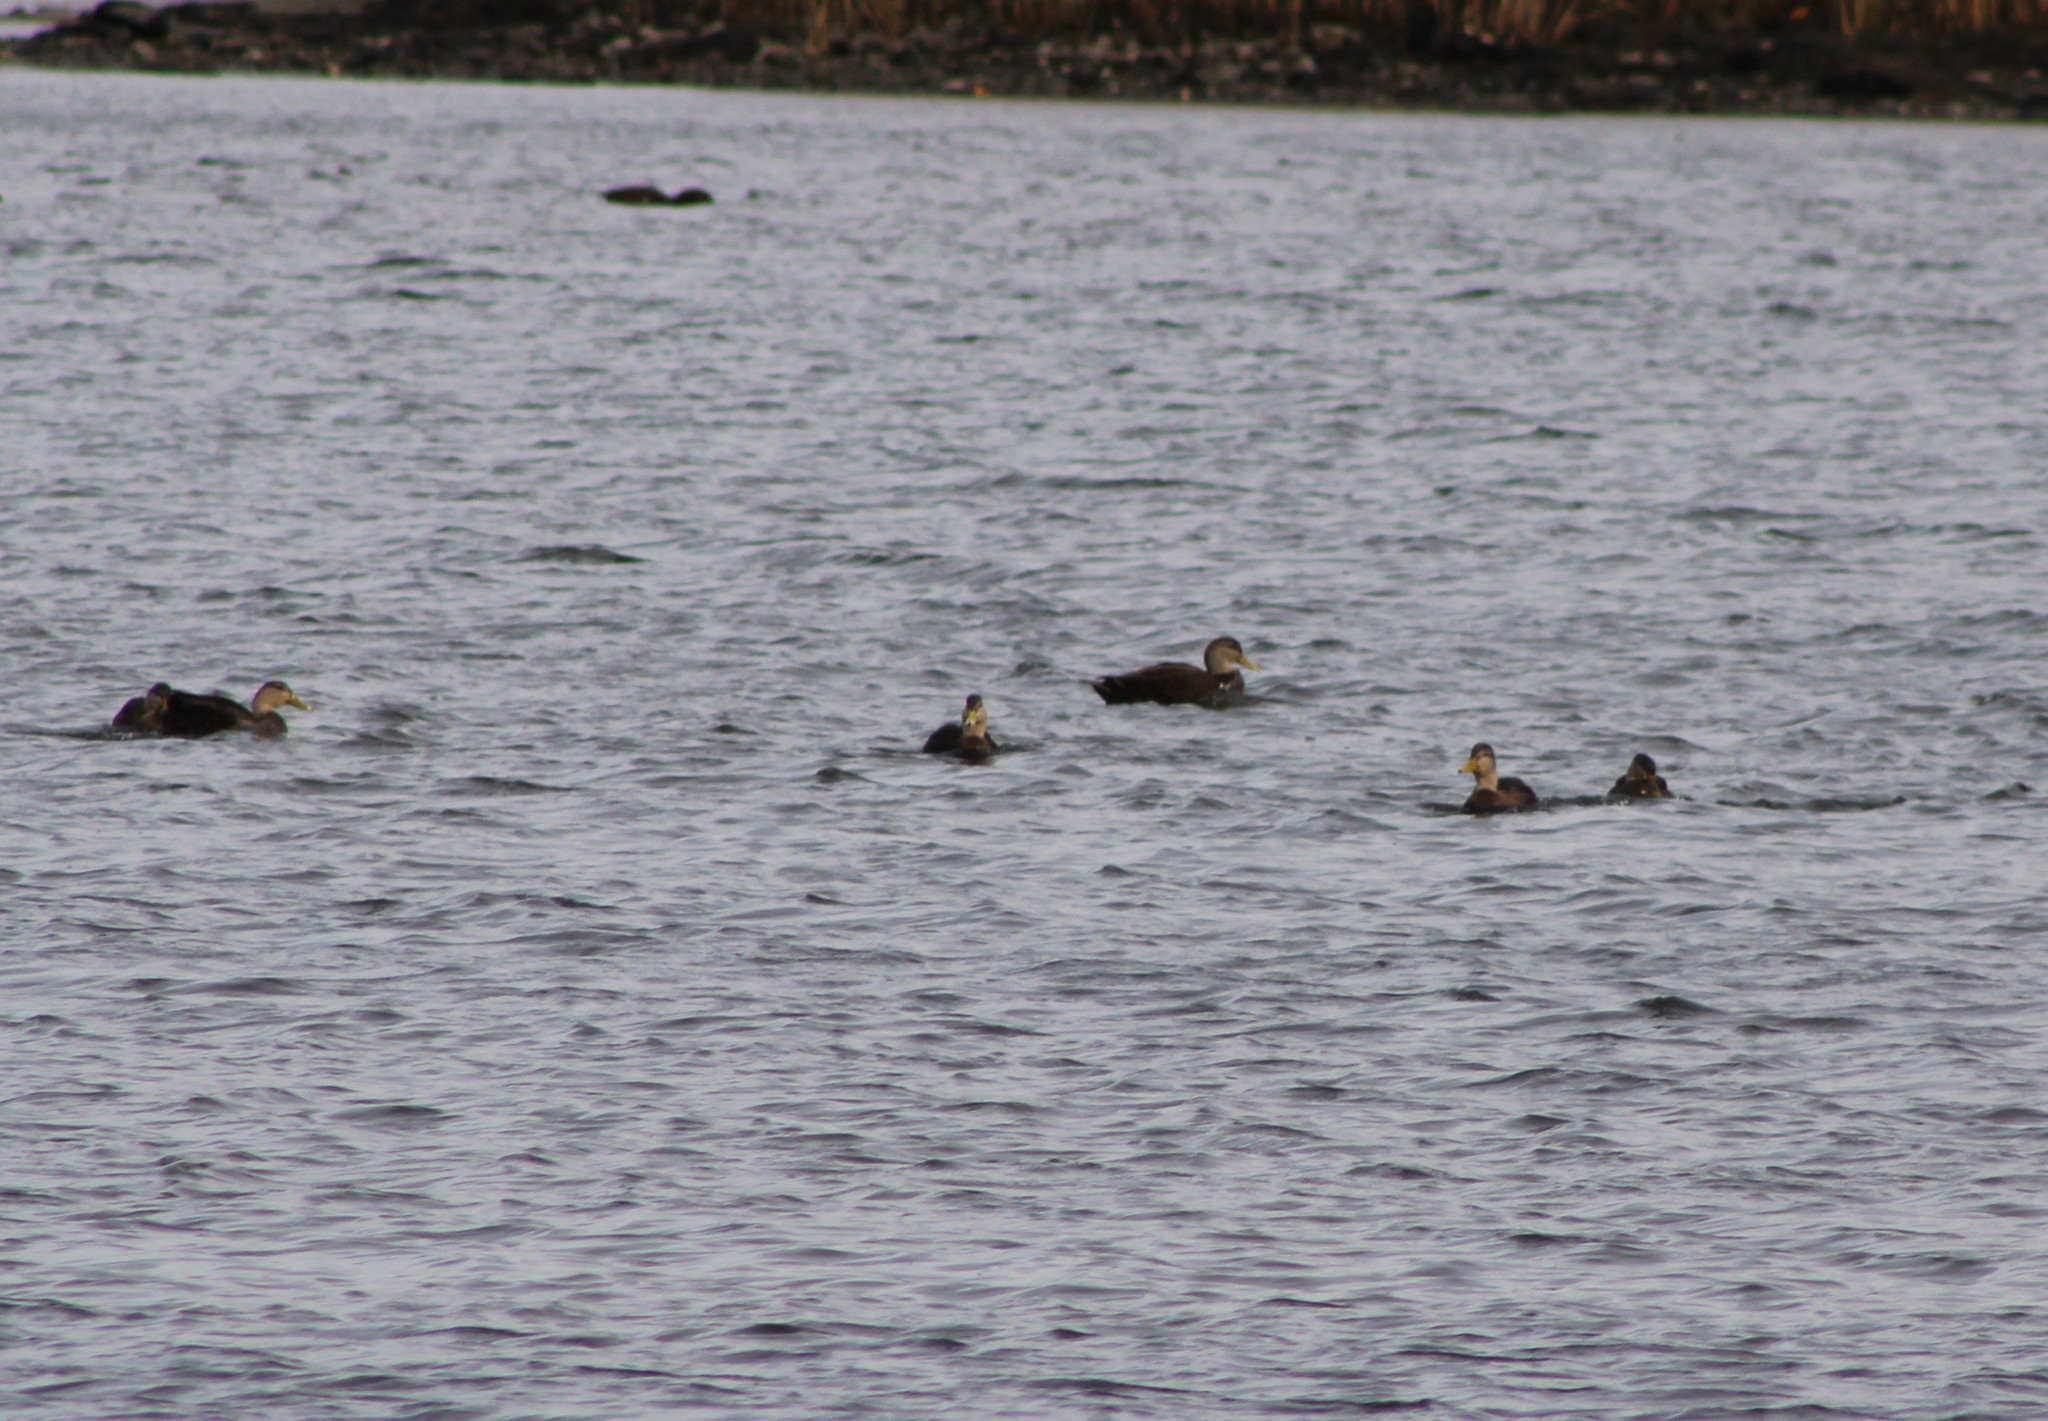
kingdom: Animalia
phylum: Chordata
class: Aves
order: Anseriformes
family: Anatidae
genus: Anas
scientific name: Anas rubripes
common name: American black duck
